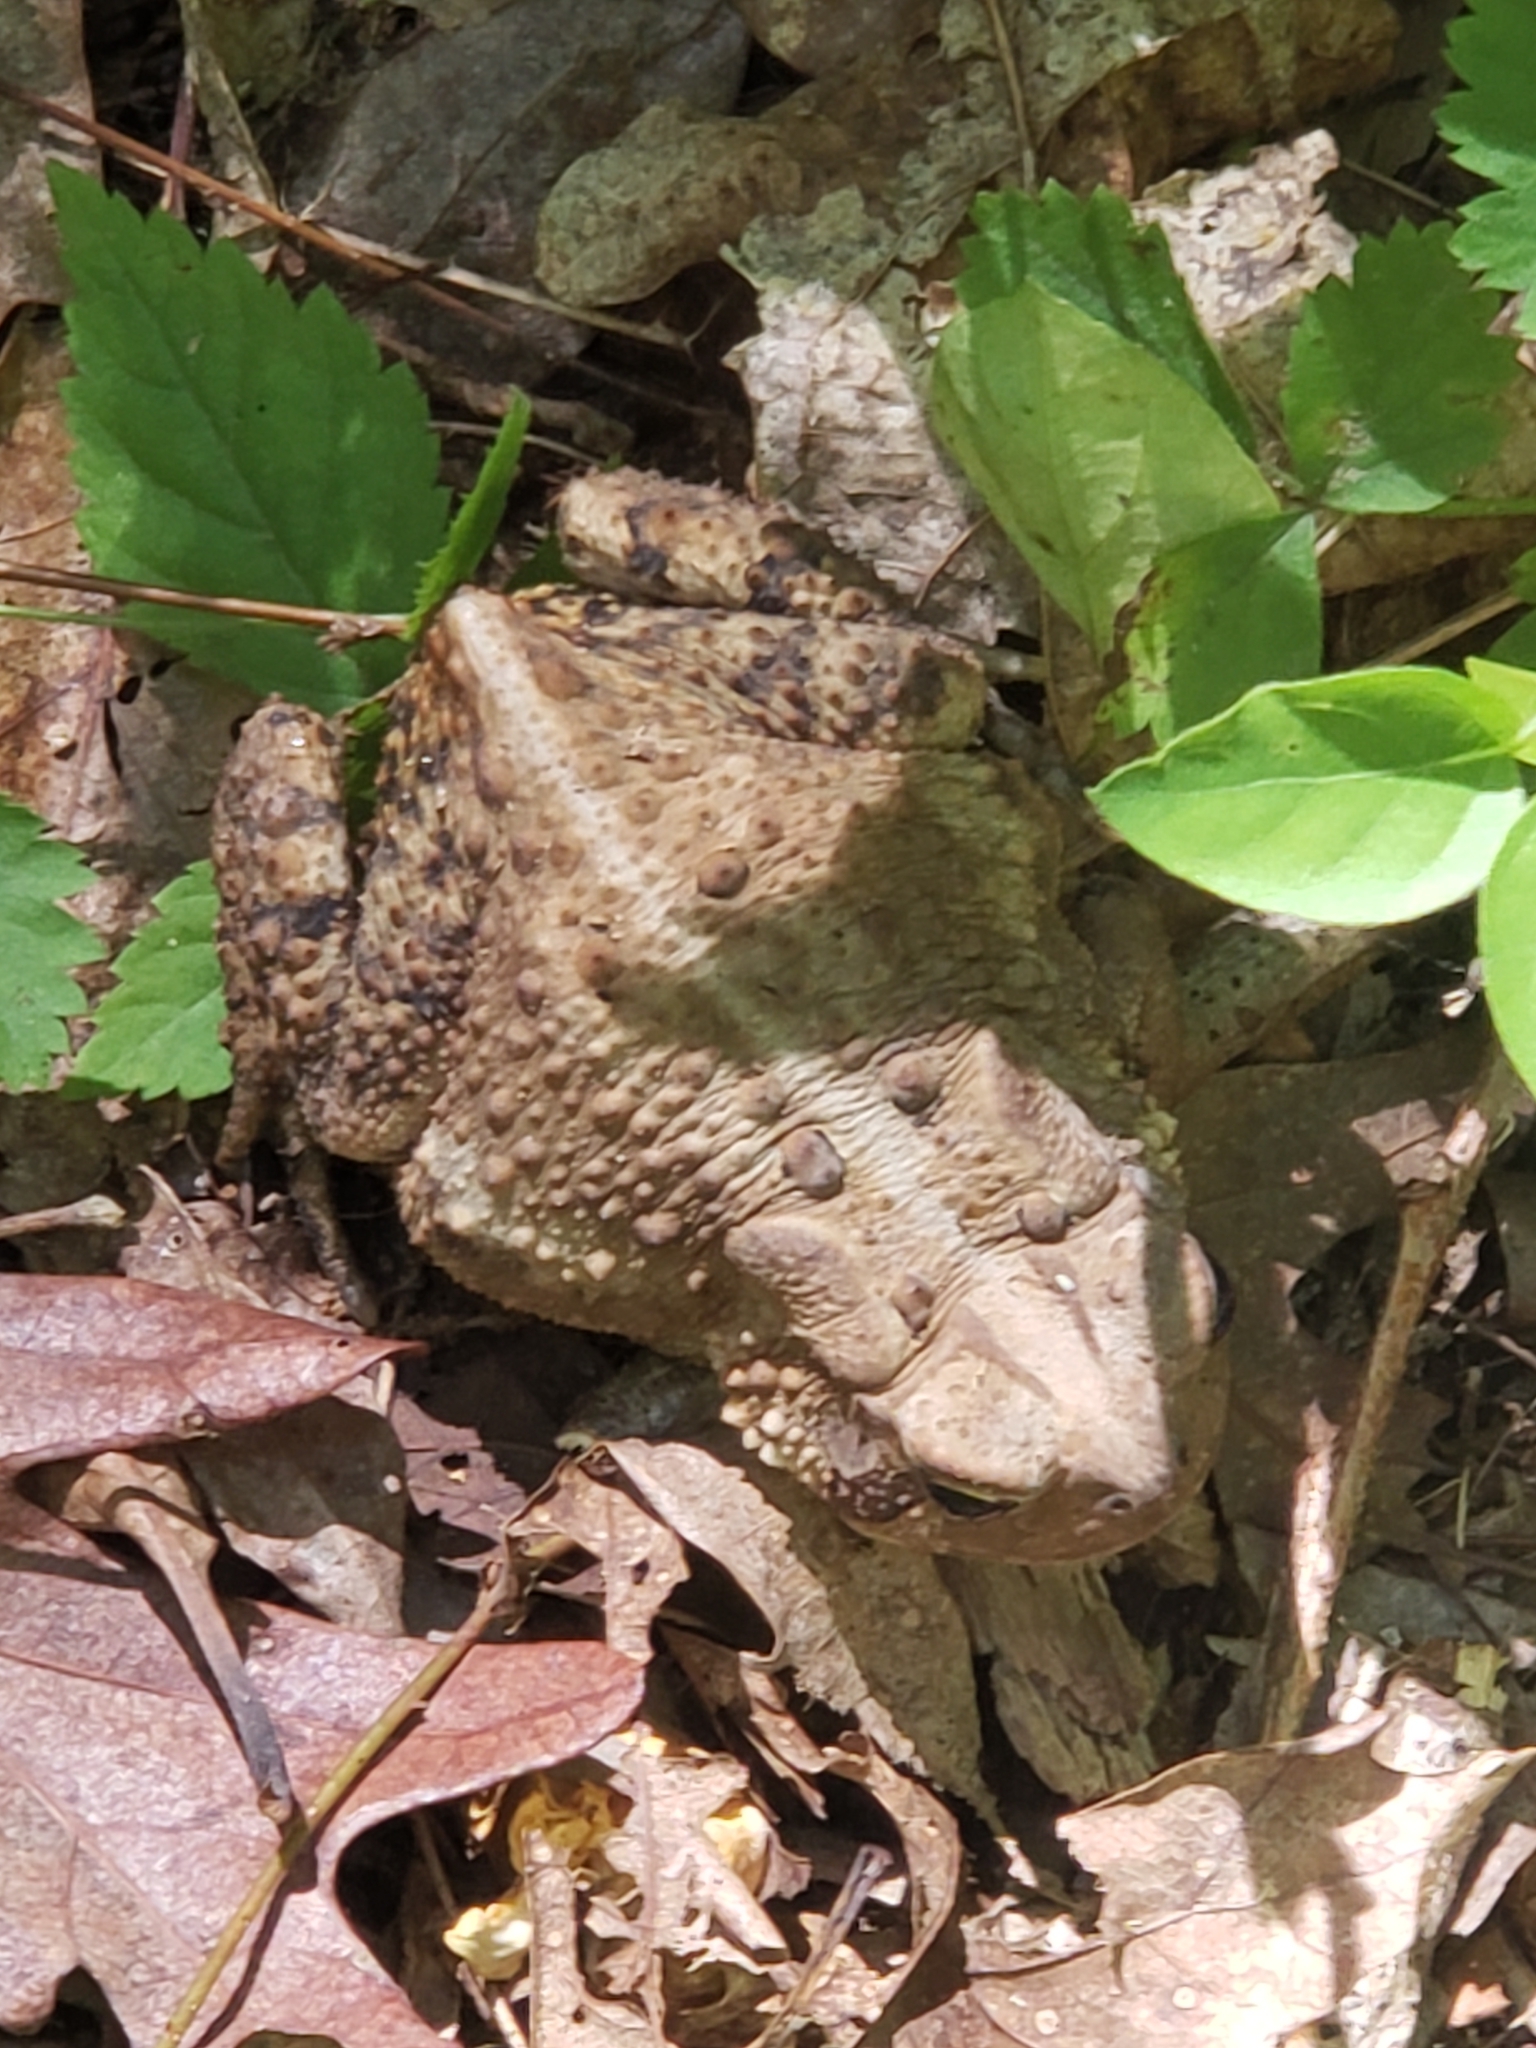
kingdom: Animalia
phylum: Chordata
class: Amphibia
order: Anura
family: Bufonidae
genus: Anaxyrus
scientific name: Anaxyrus americanus
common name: American toad
